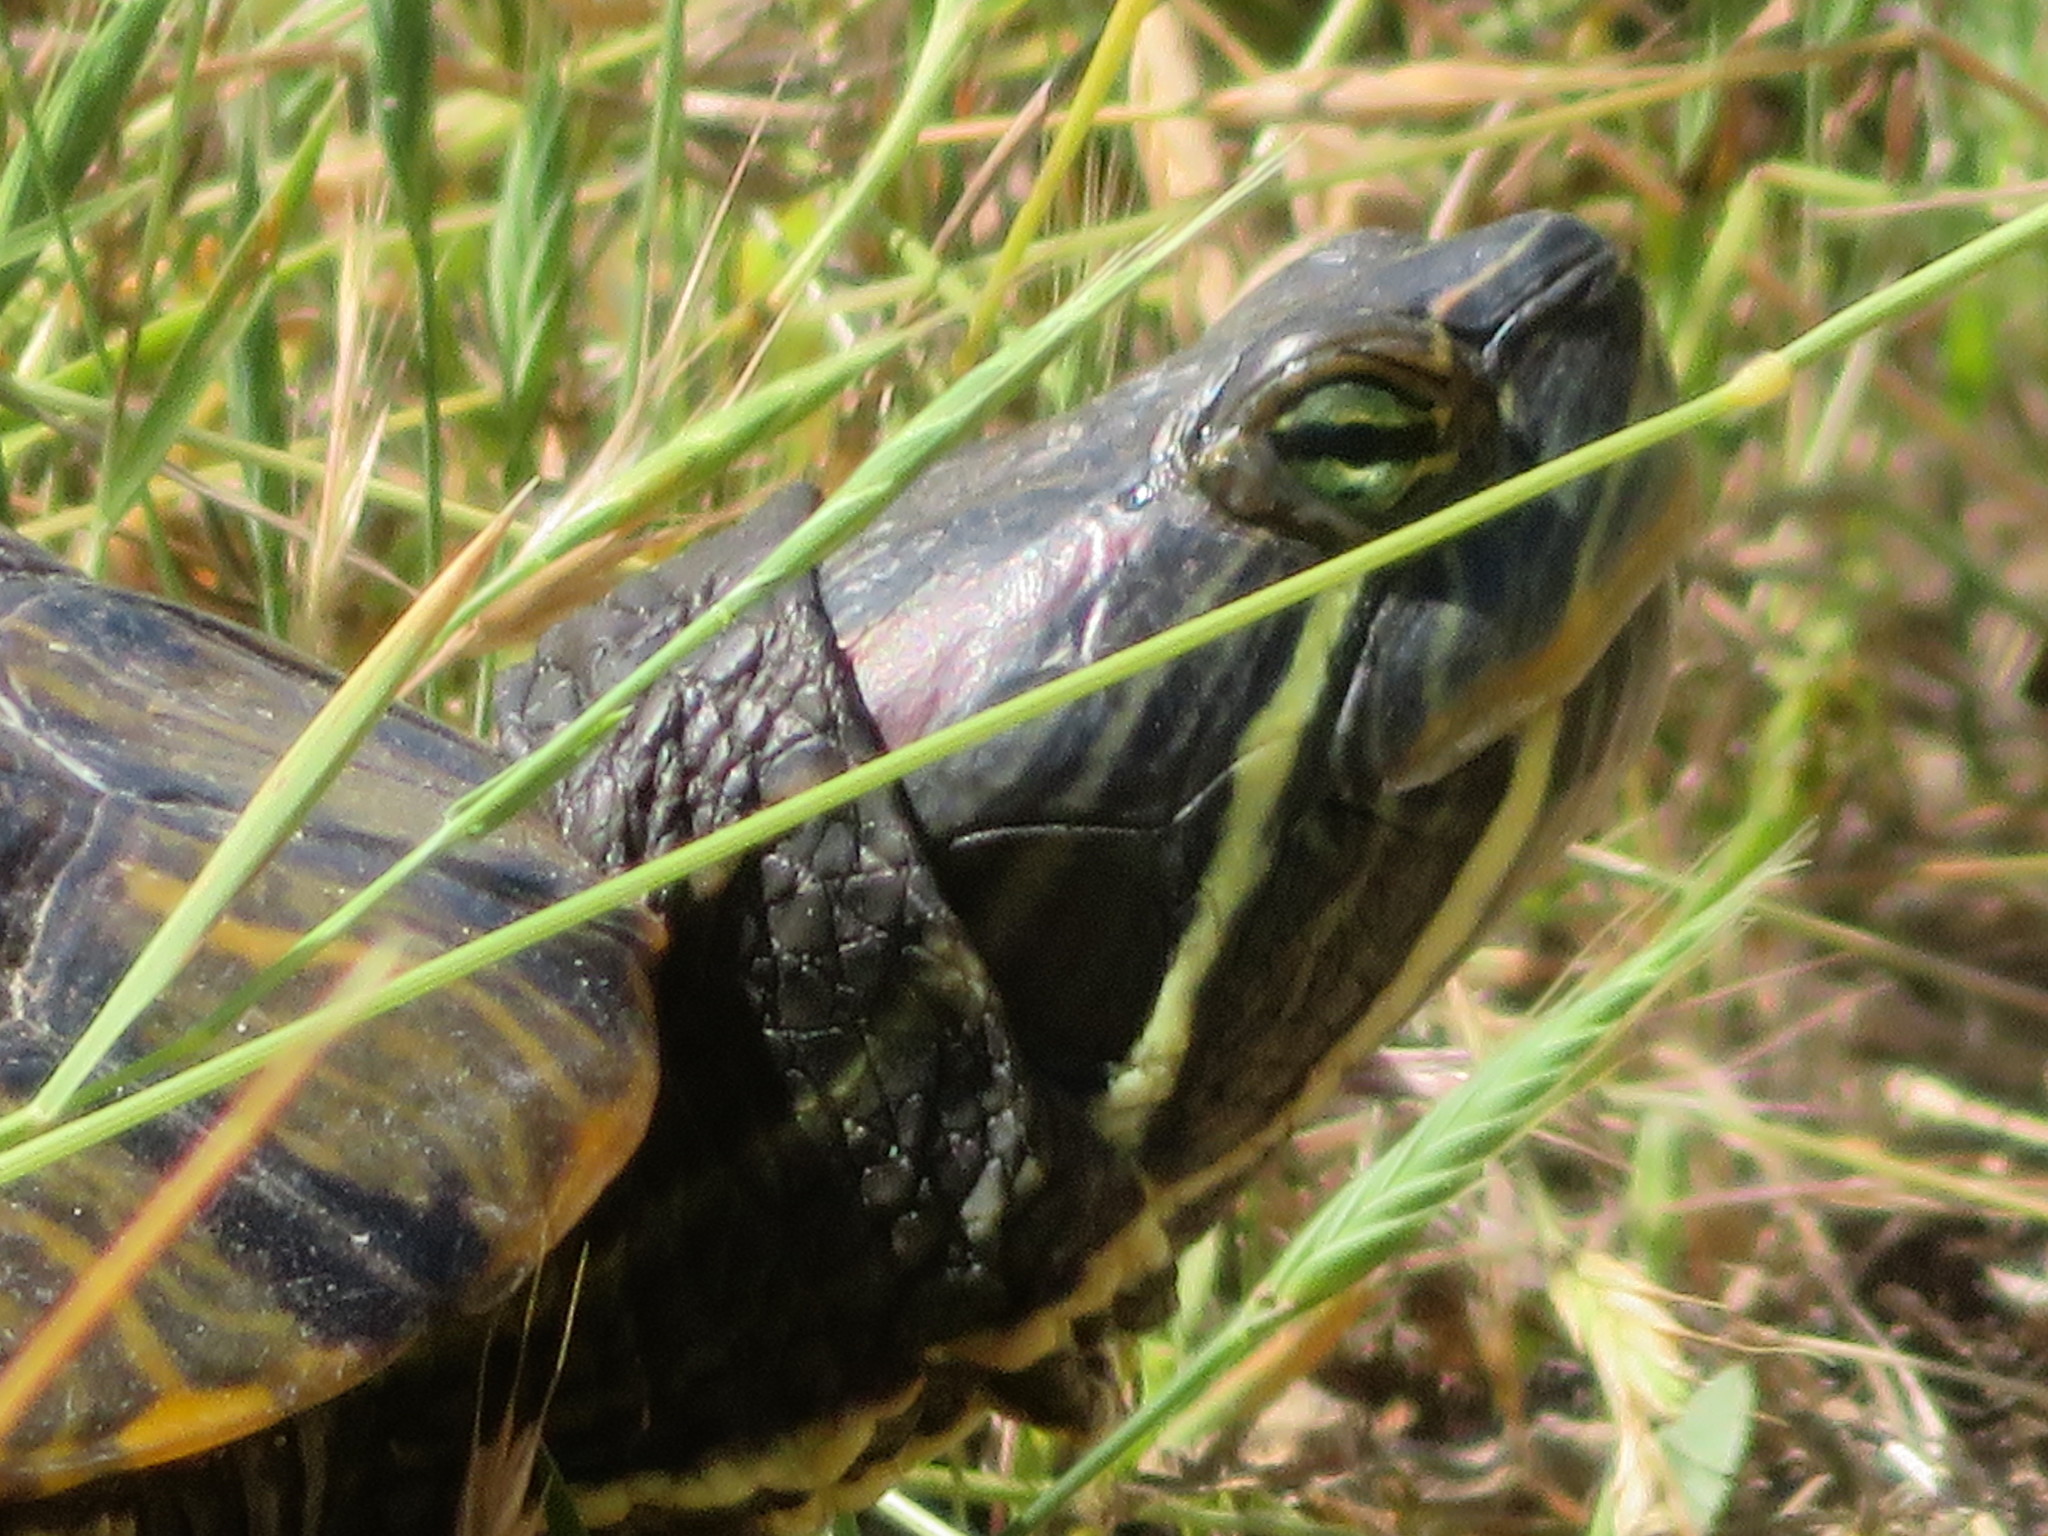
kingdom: Animalia
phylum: Chordata
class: Testudines
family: Emydidae
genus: Trachemys
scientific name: Trachemys scripta
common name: Slider
